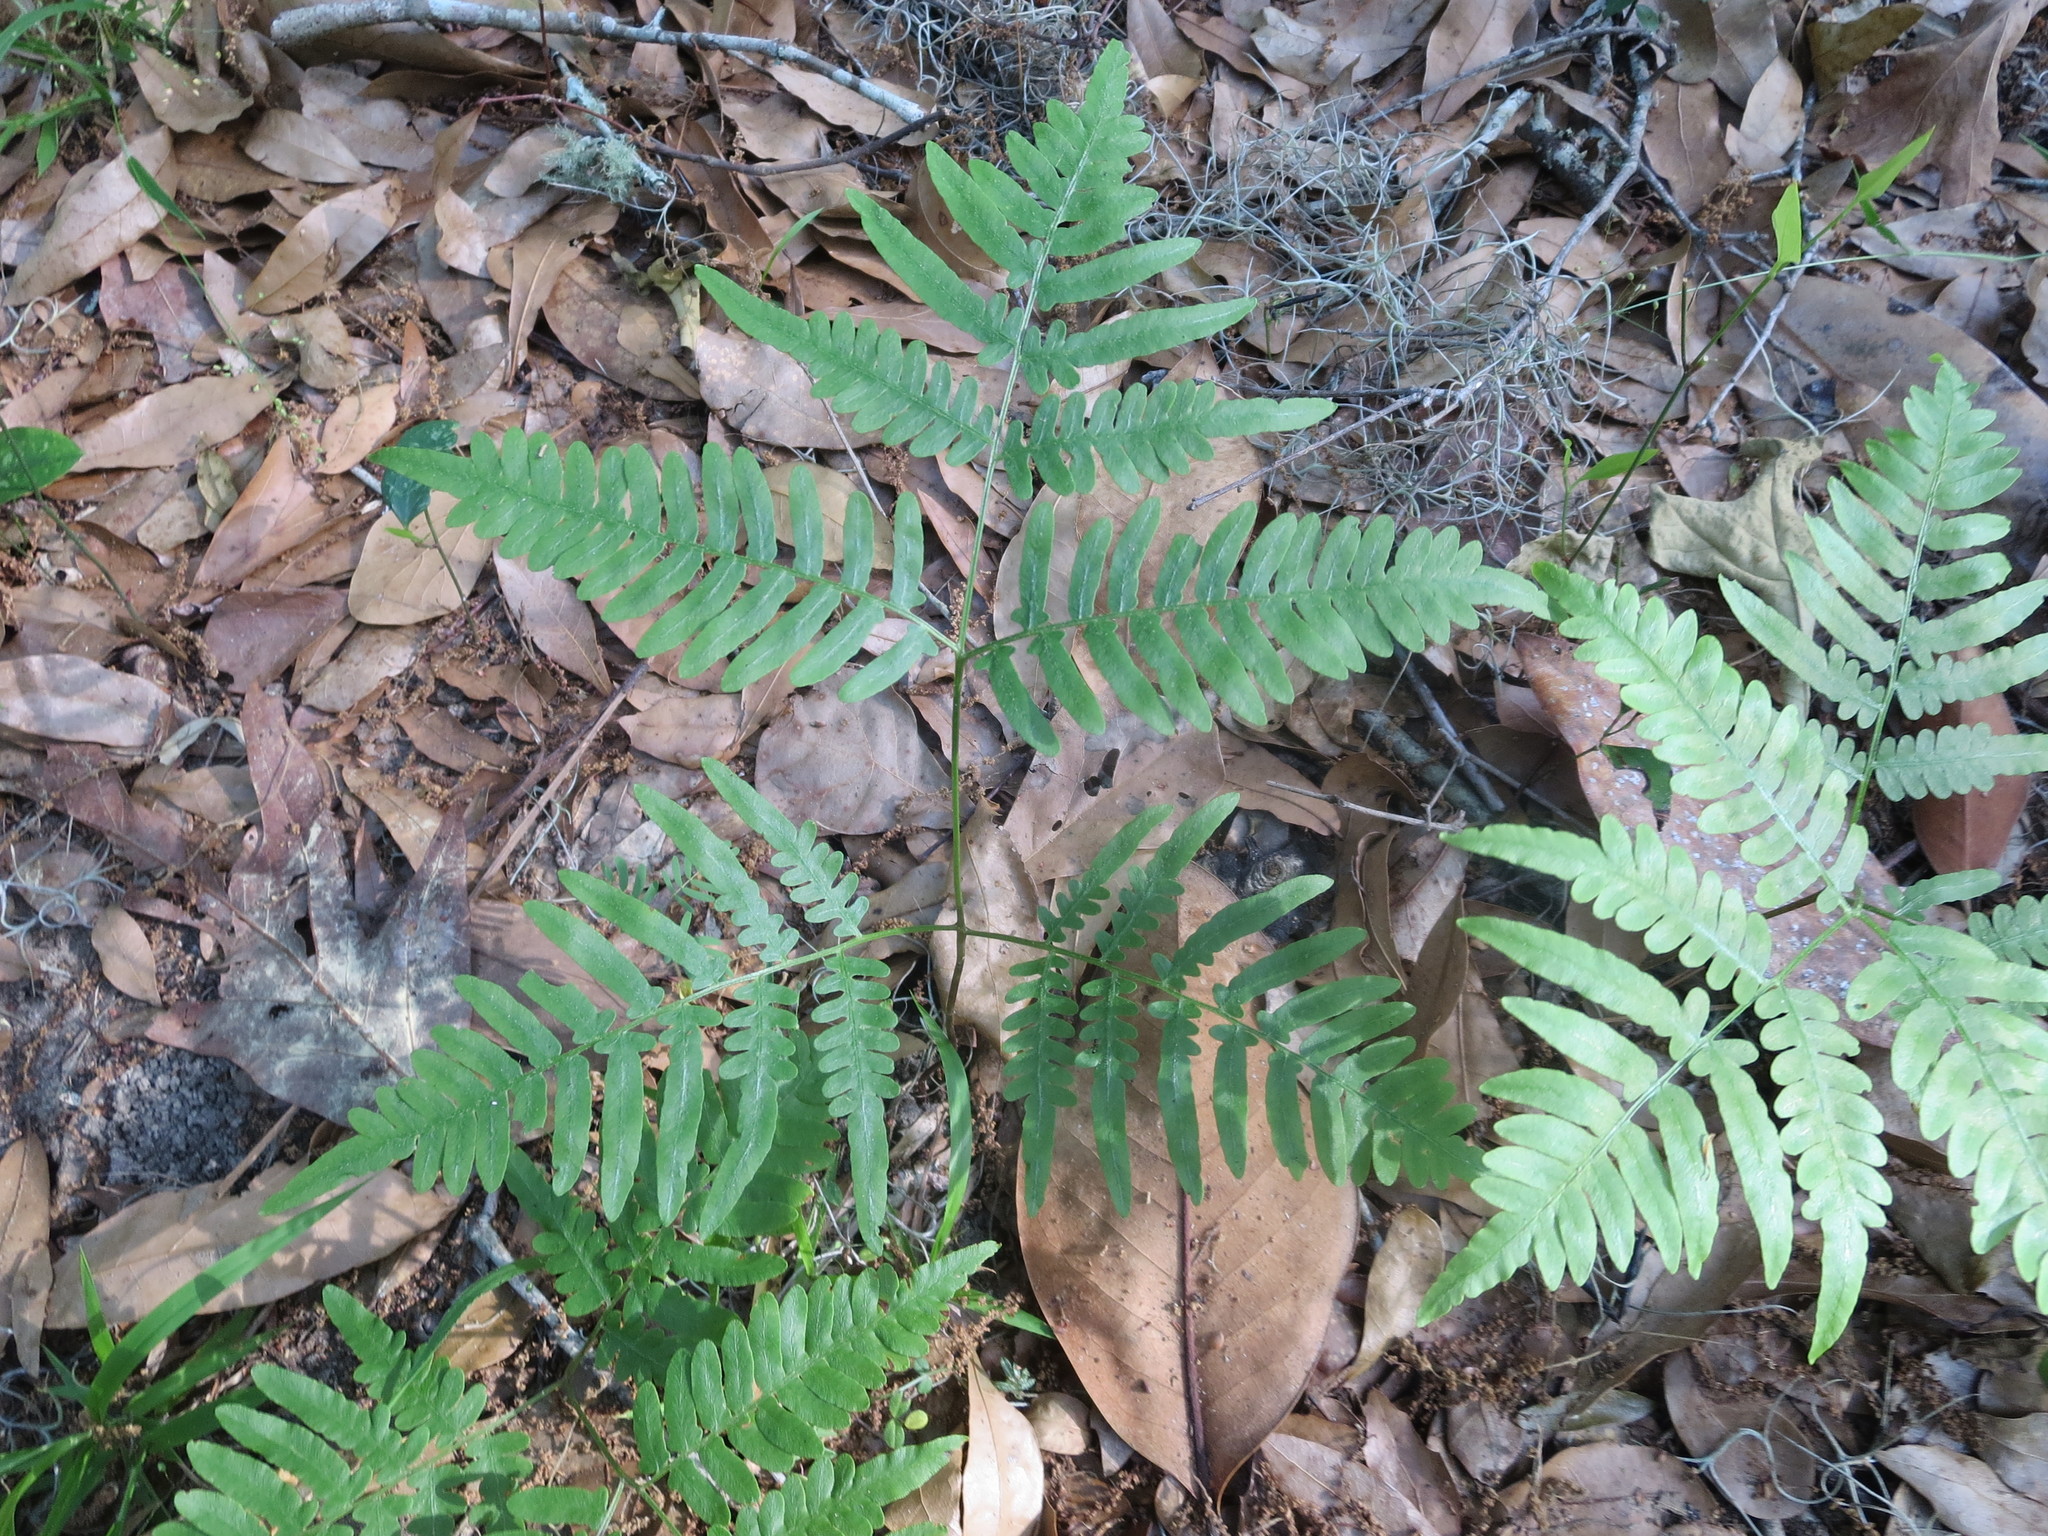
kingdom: Plantae
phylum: Tracheophyta
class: Polypodiopsida
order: Polypodiales
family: Dennstaedtiaceae
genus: Pteridium
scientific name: Pteridium
